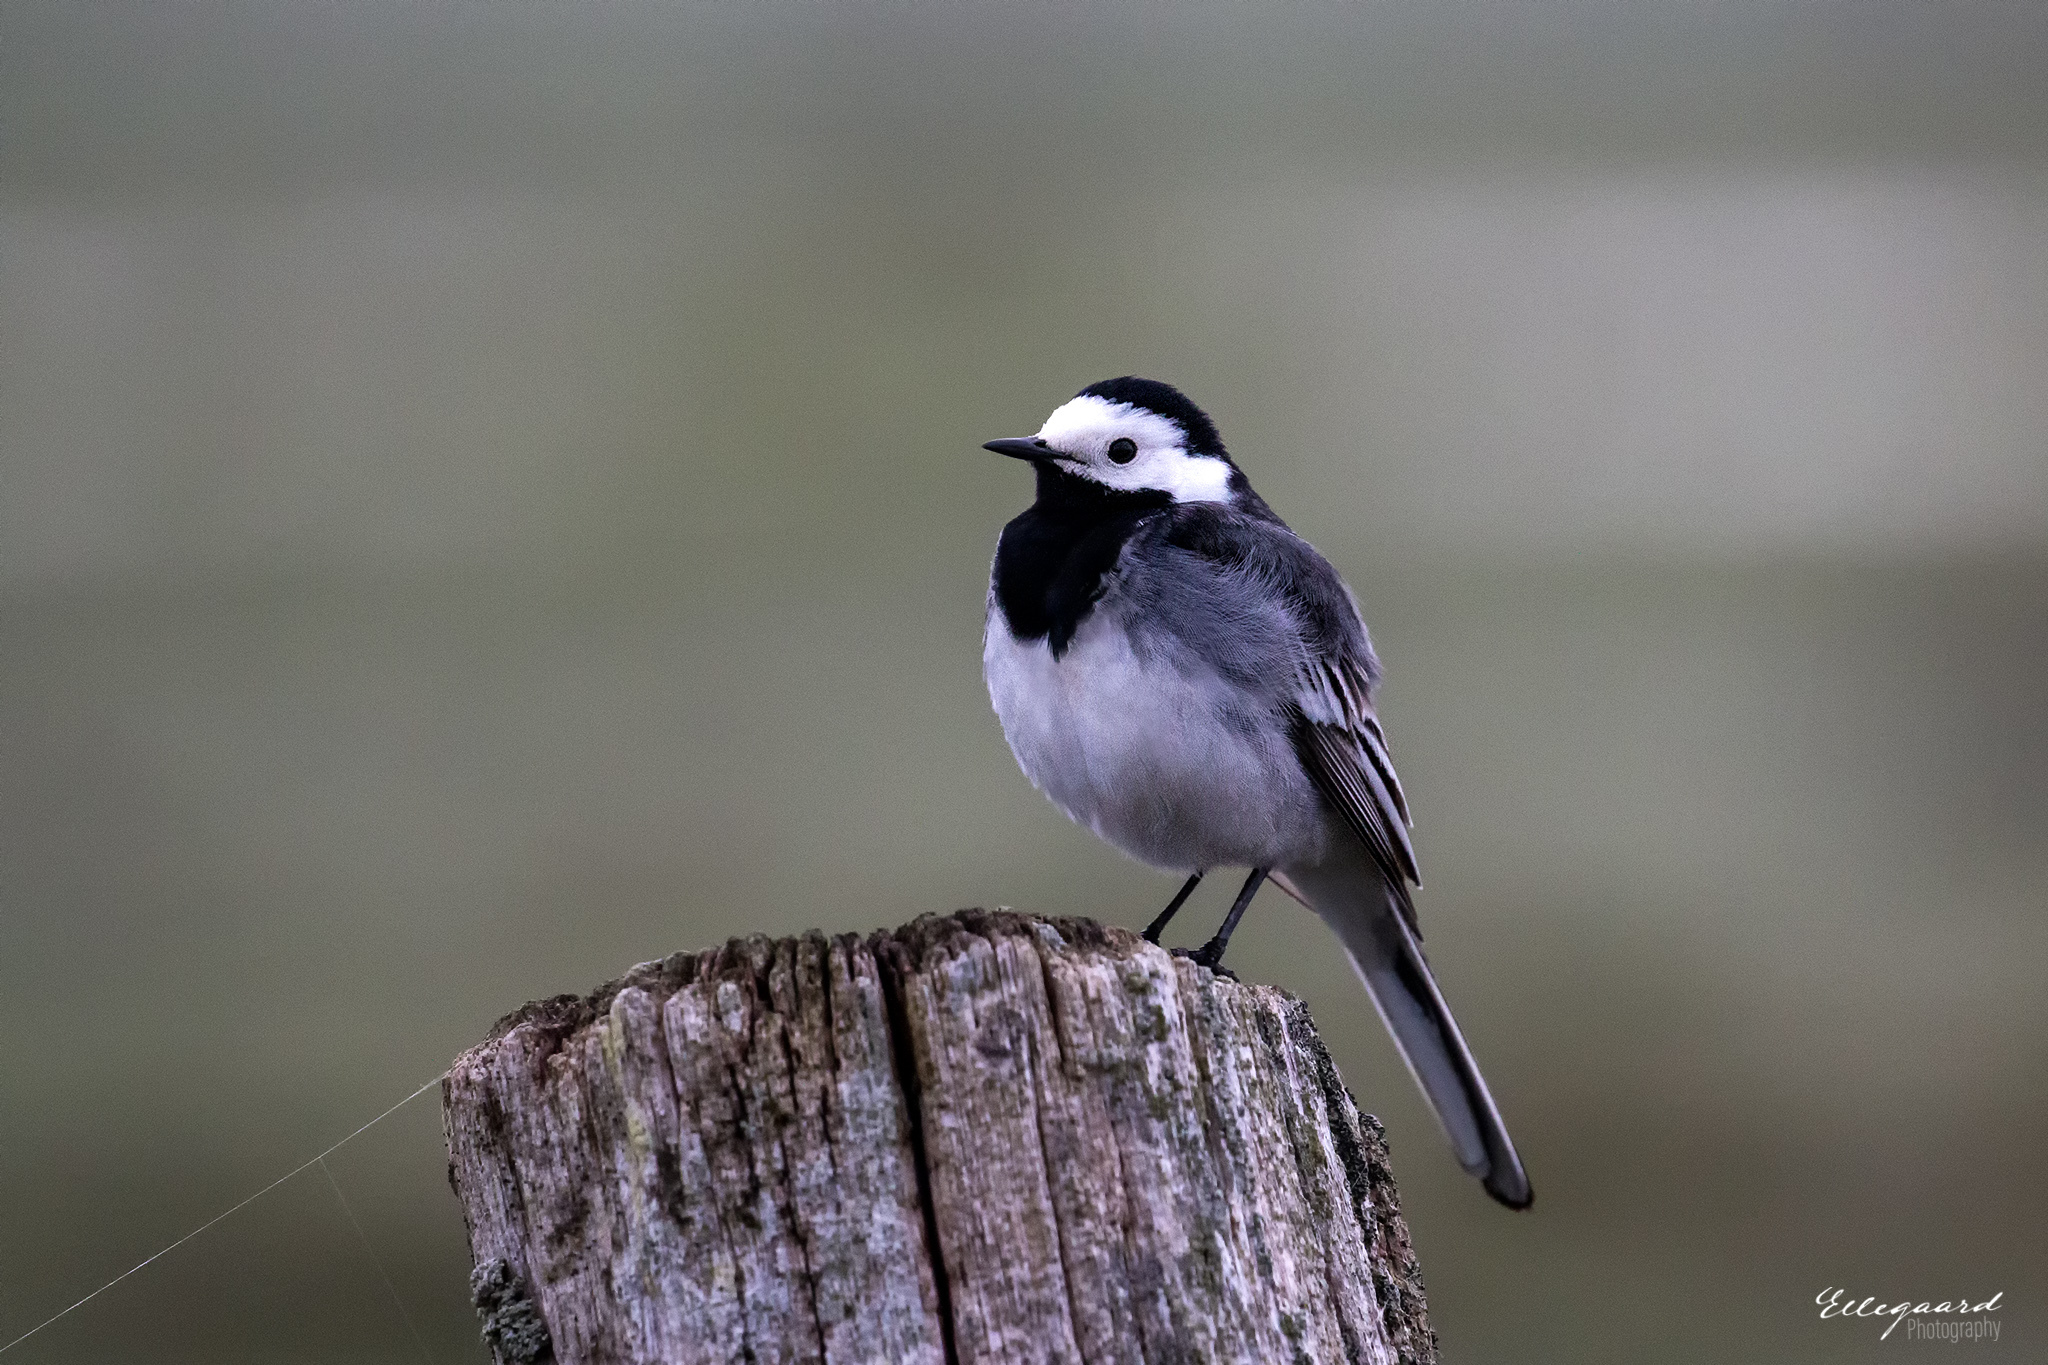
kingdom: Animalia
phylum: Chordata
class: Aves
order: Passeriformes
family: Motacillidae
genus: Motacilla
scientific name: Motacilla alba
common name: White wagtail
